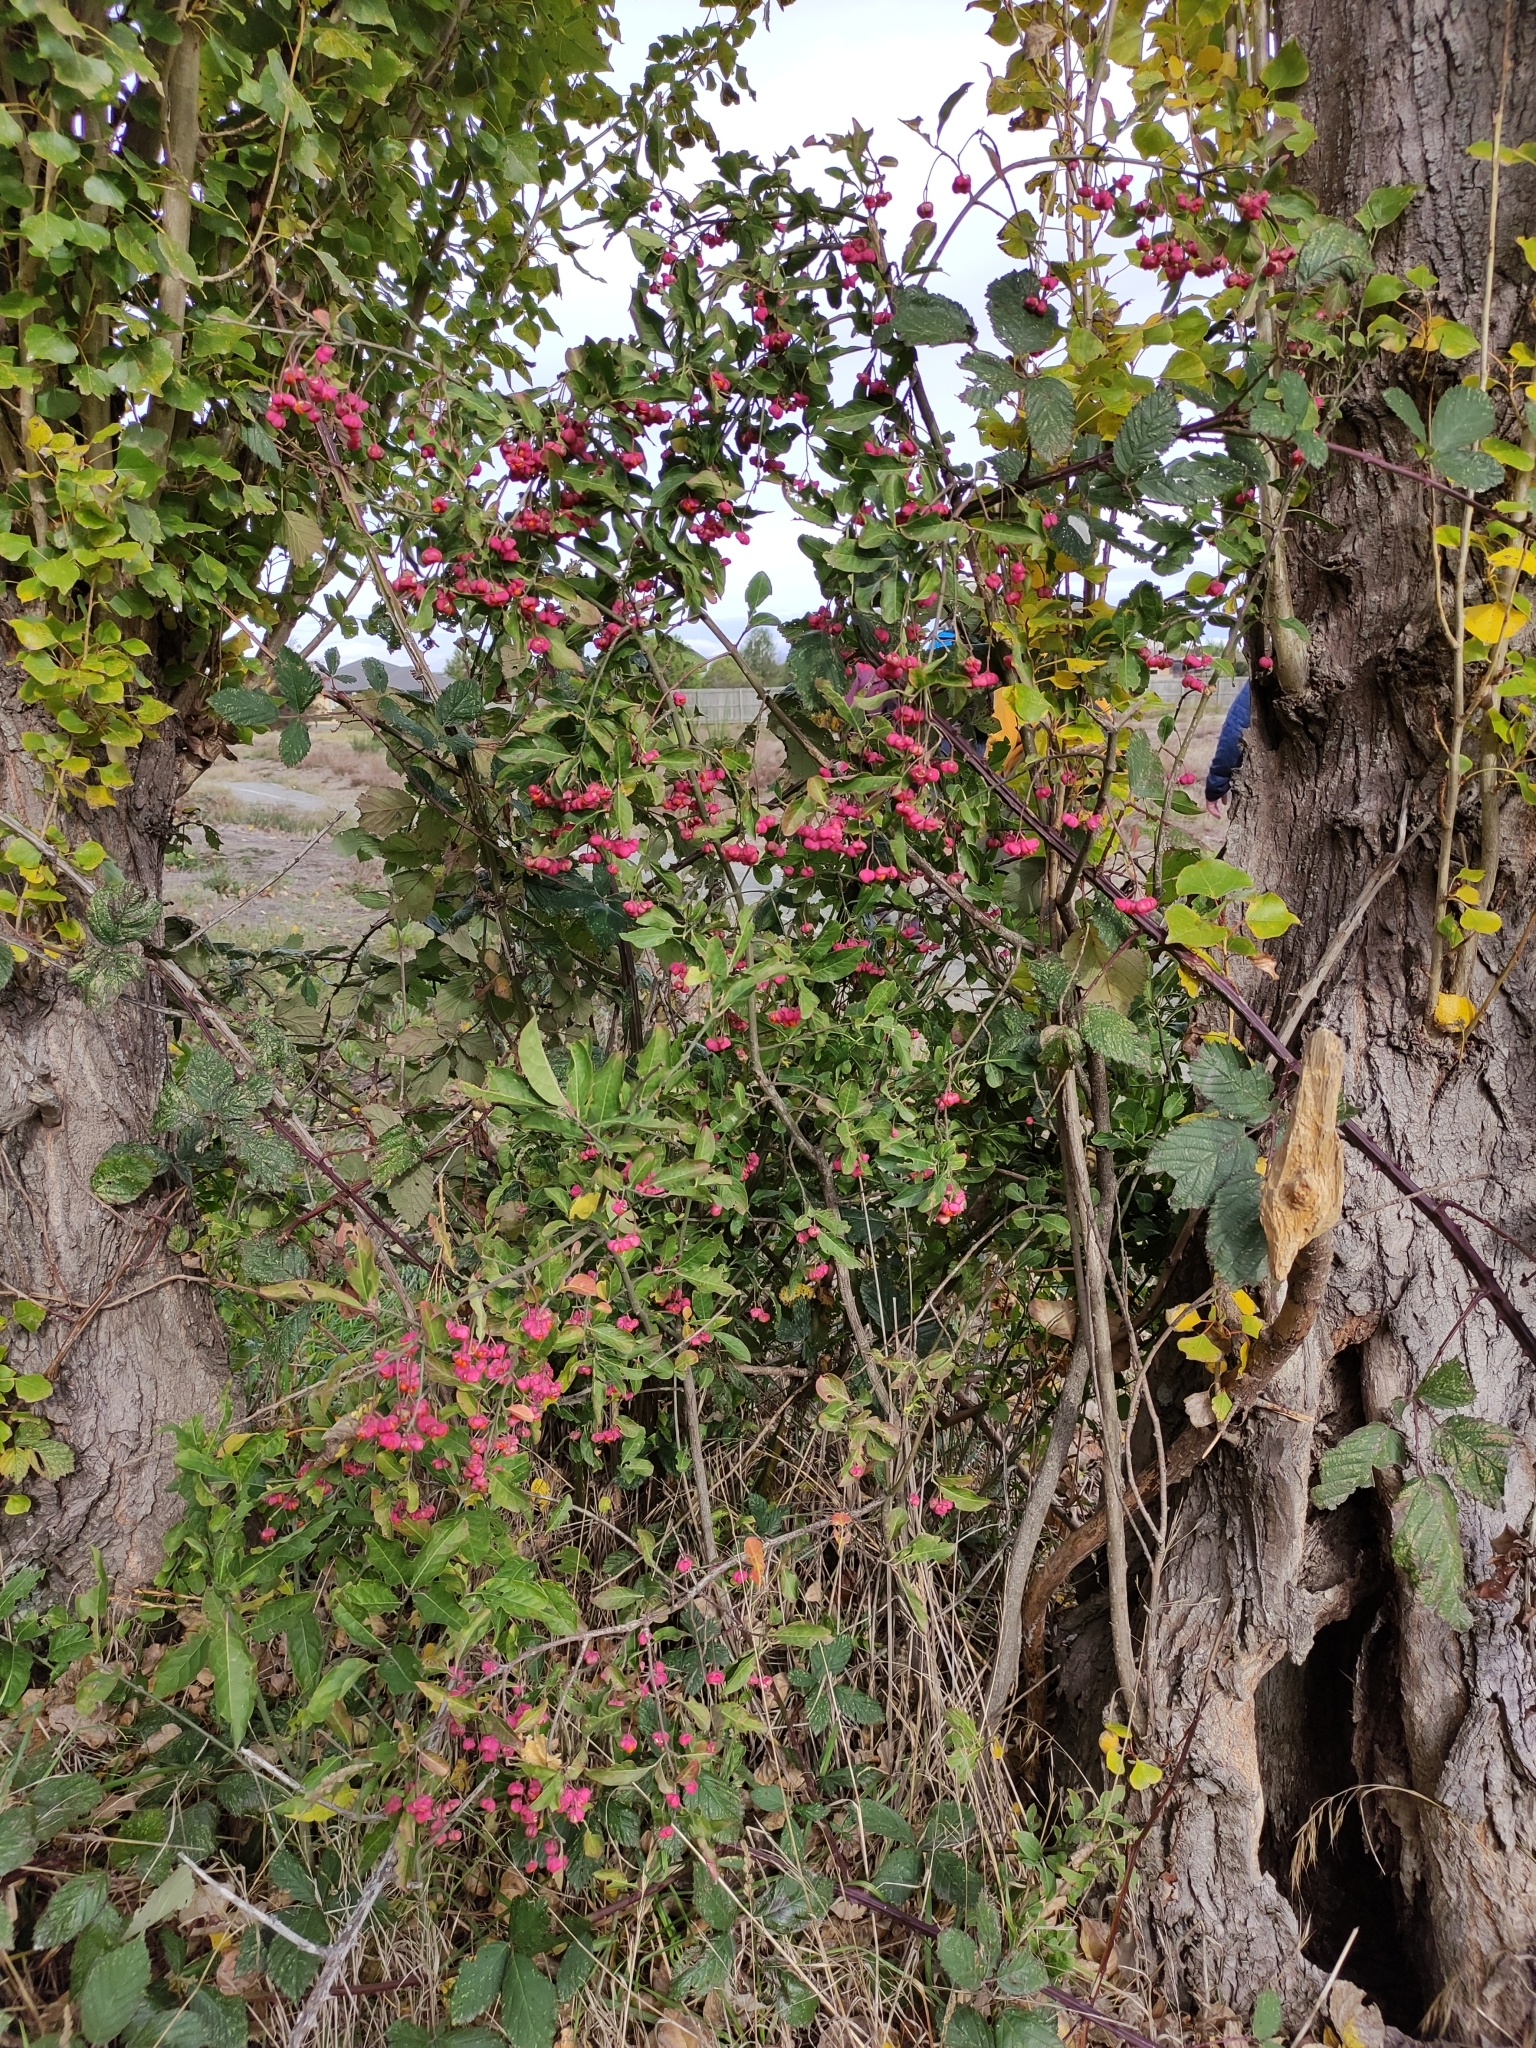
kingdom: Plantae
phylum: Tracheophyta
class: Magnoliopsida
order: Celastrales
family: Celastraceae
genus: Euonymus
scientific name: Euonymus europaeus
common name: Spindle
